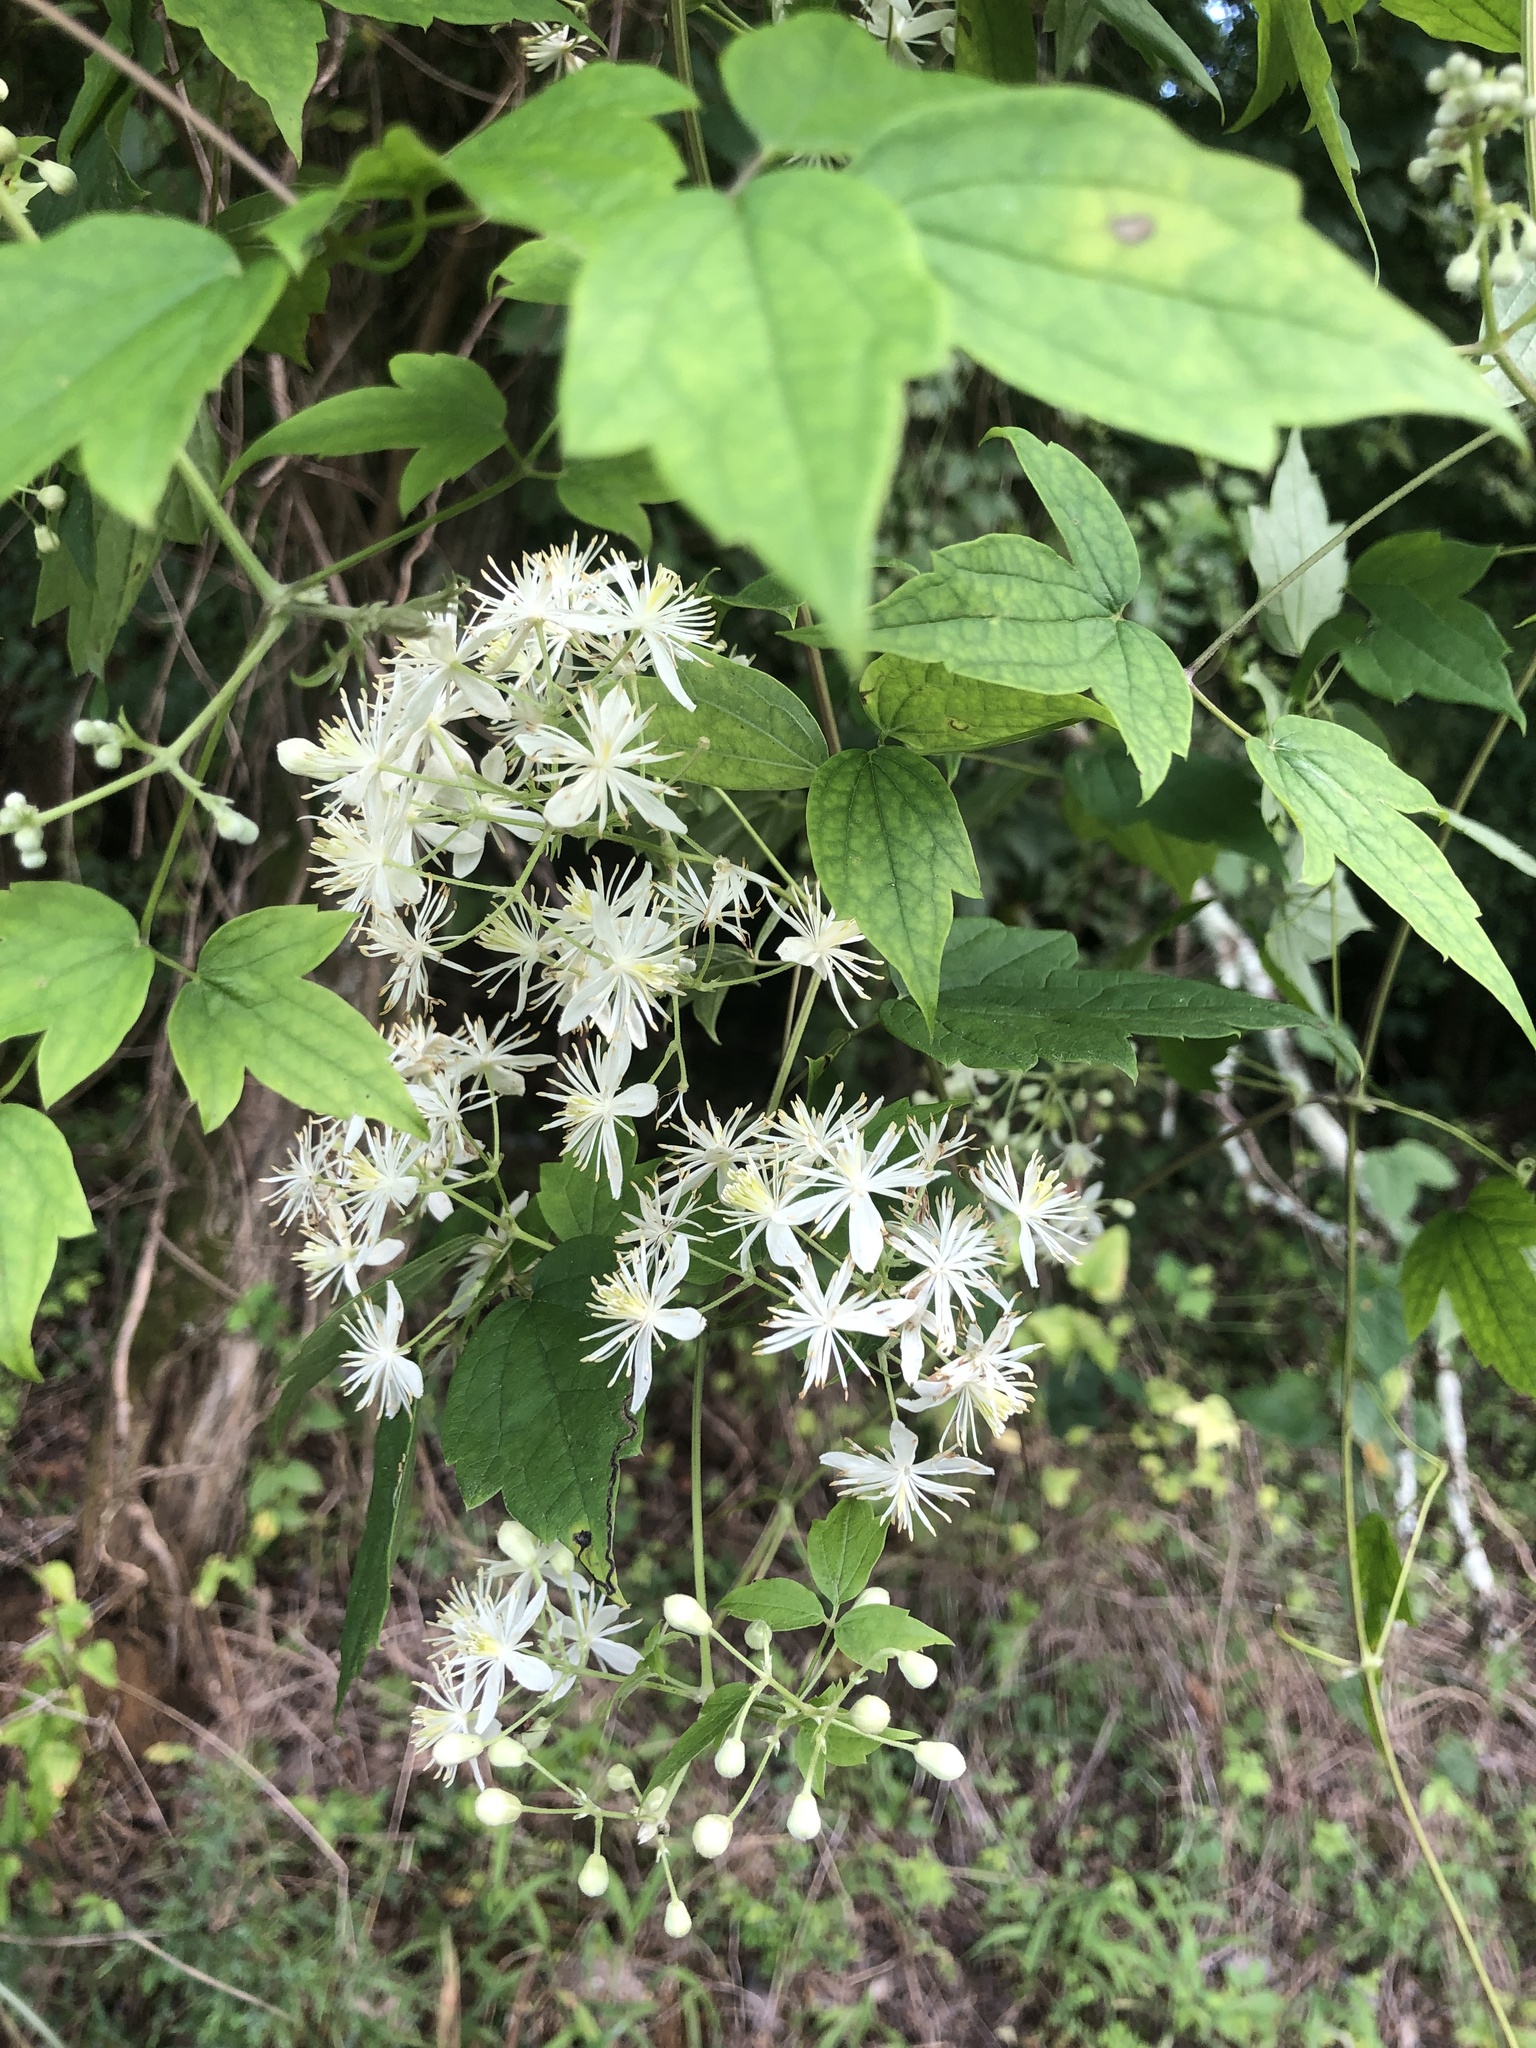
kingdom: Plantae
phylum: Tracheophyta
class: Magnoliopsida
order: Ranunculales
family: Ranunculaceae
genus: Clematis
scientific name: Clematis catesbyana
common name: Virgin's bower
